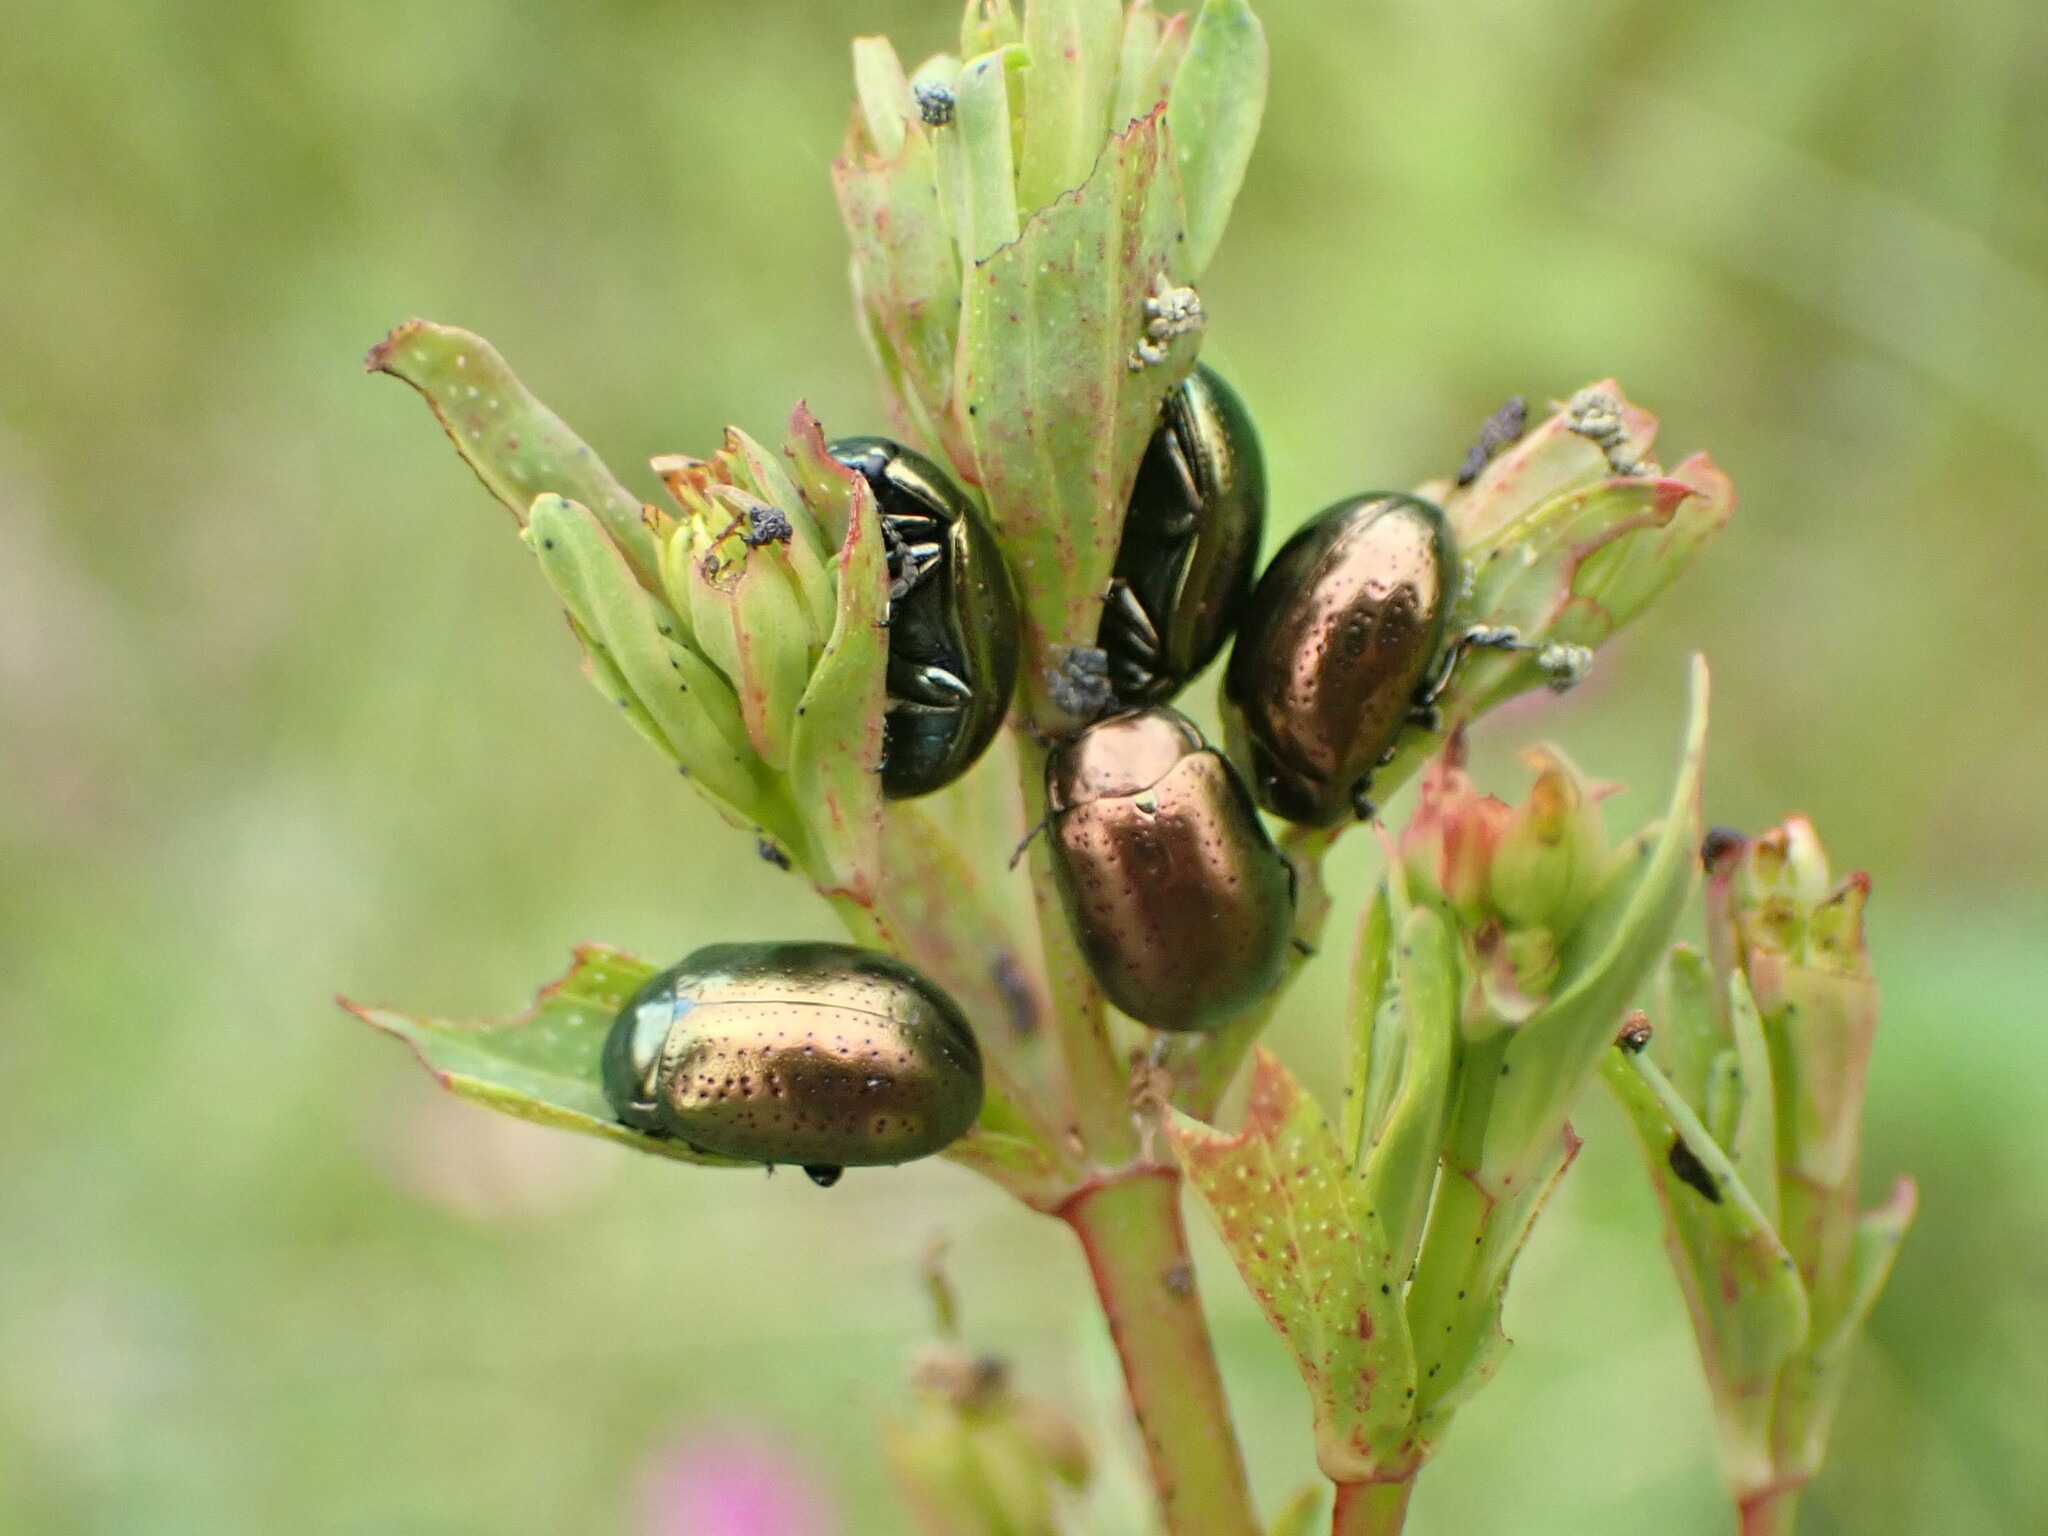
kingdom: Animalia
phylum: Arthropoda
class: Insecta
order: Coleoptera
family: Chrysomelidae
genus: Chrysolina
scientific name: Chrysolina hyperici
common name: St. johnswort beetle
